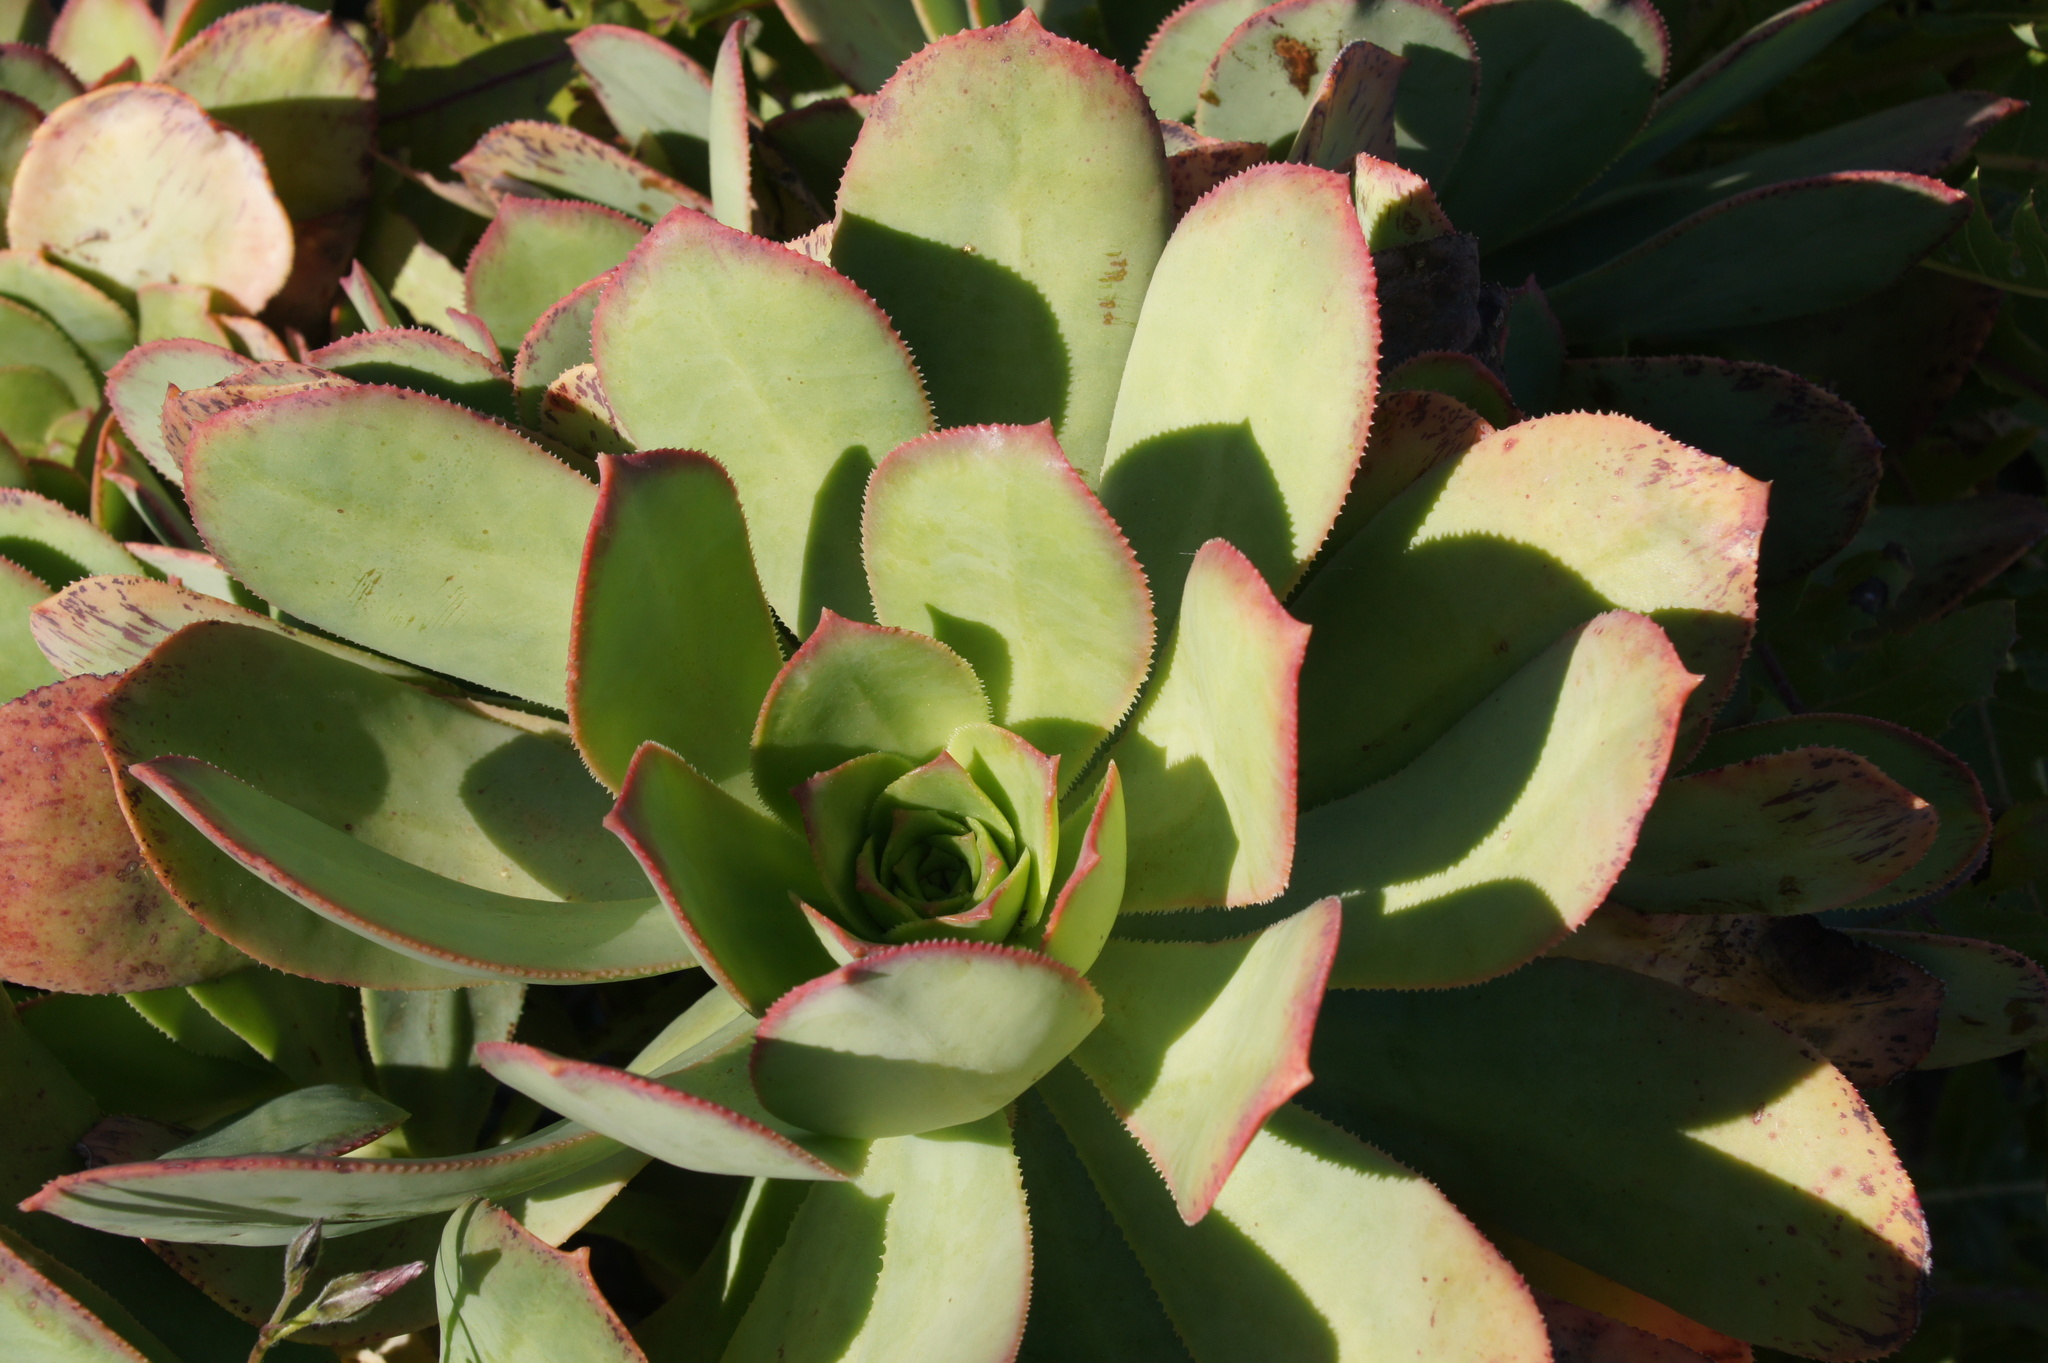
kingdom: Plantae
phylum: Tracheophyta
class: Magnoliopsida
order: Saxifragales
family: Crassulaceae
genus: Aeonium
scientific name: Aeonium davidbramwellii
